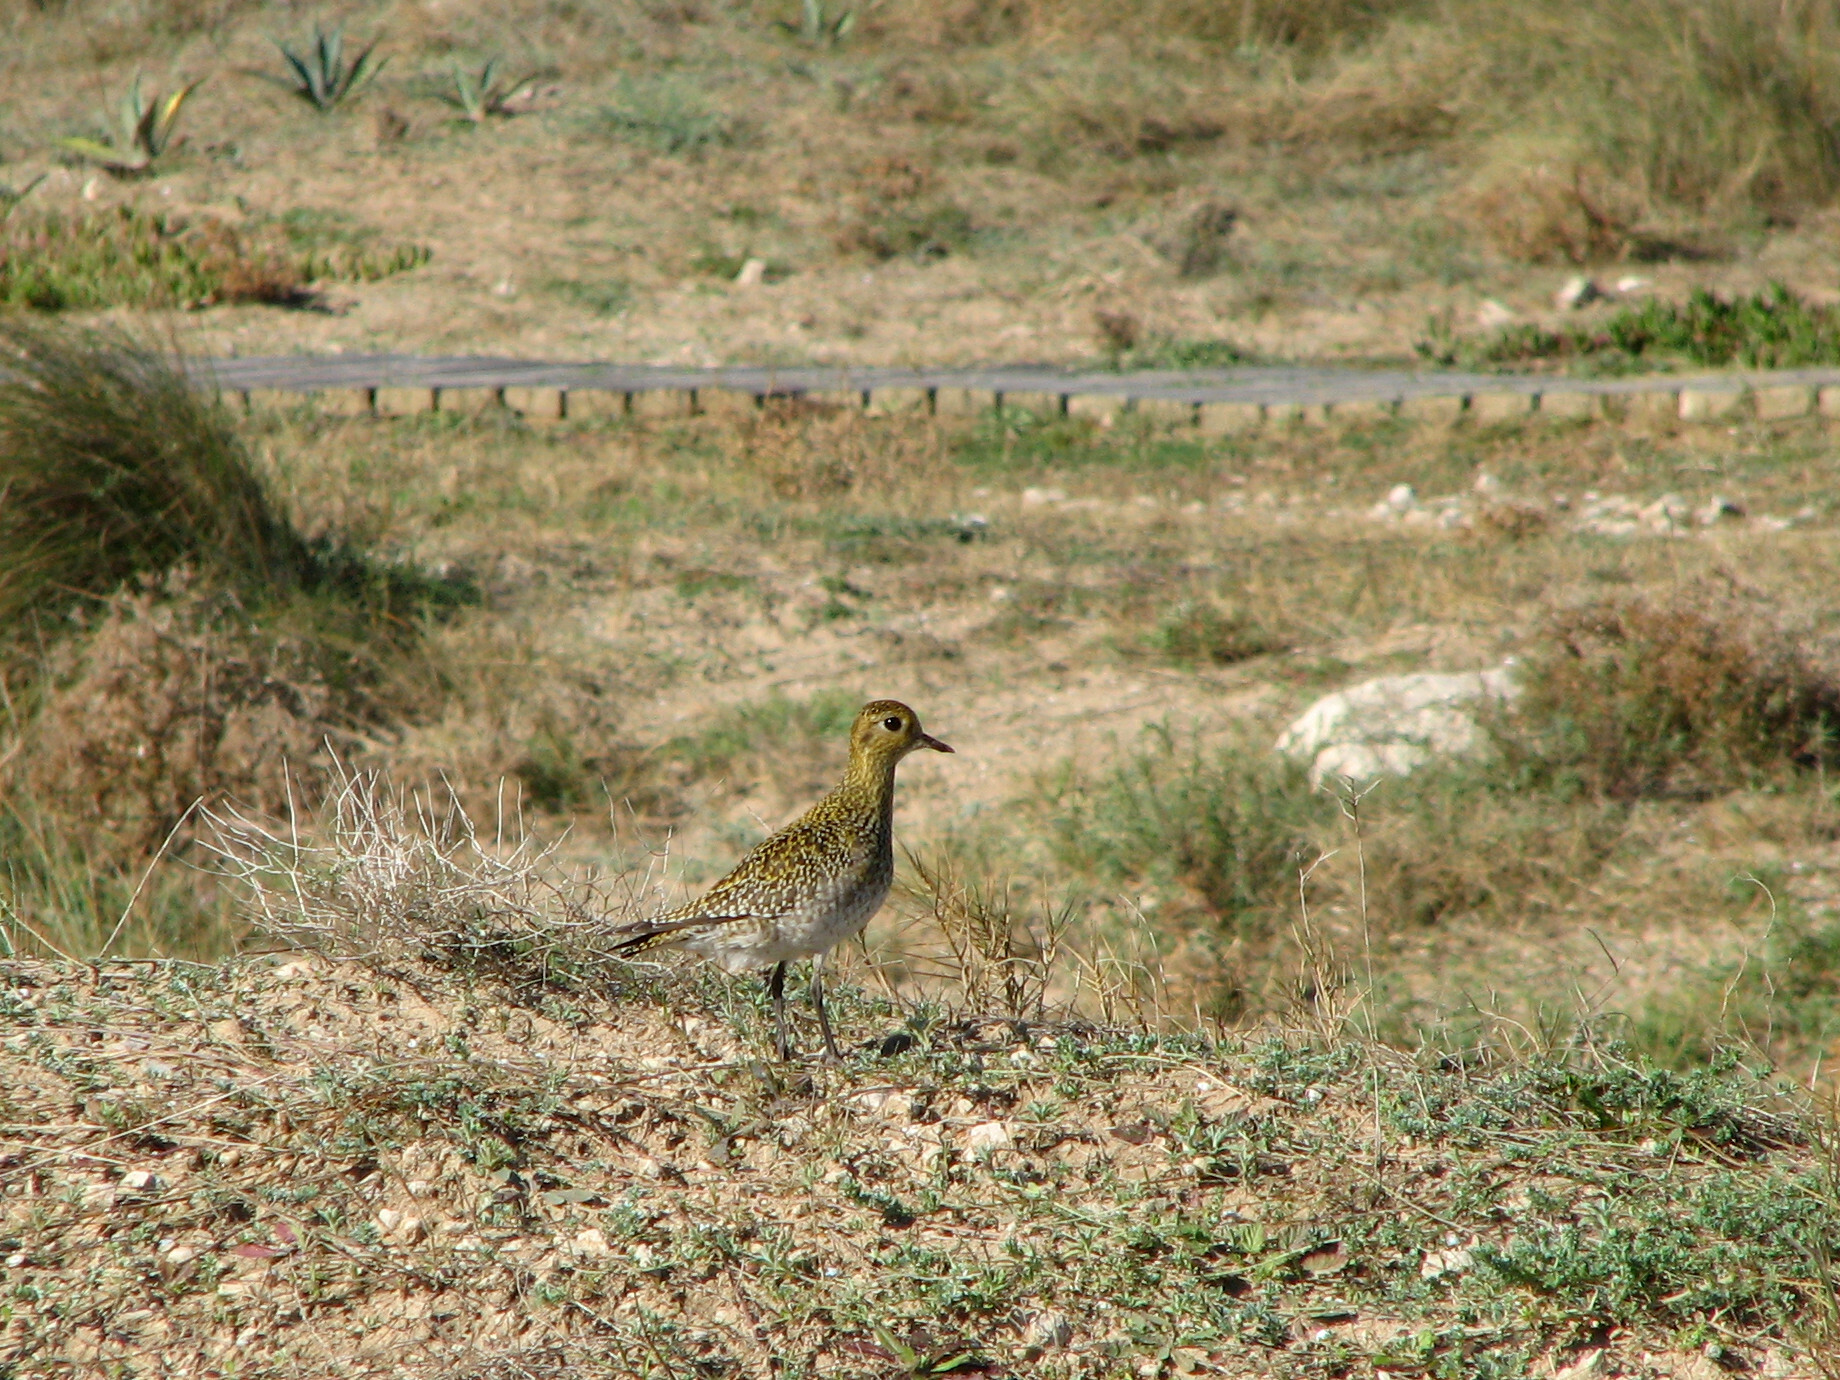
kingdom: Animalia
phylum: Chordata
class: Aves
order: Charadriiformes
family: Charadriidae
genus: Pluvialis
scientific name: Pluvialis apricaria
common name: European golden plover
